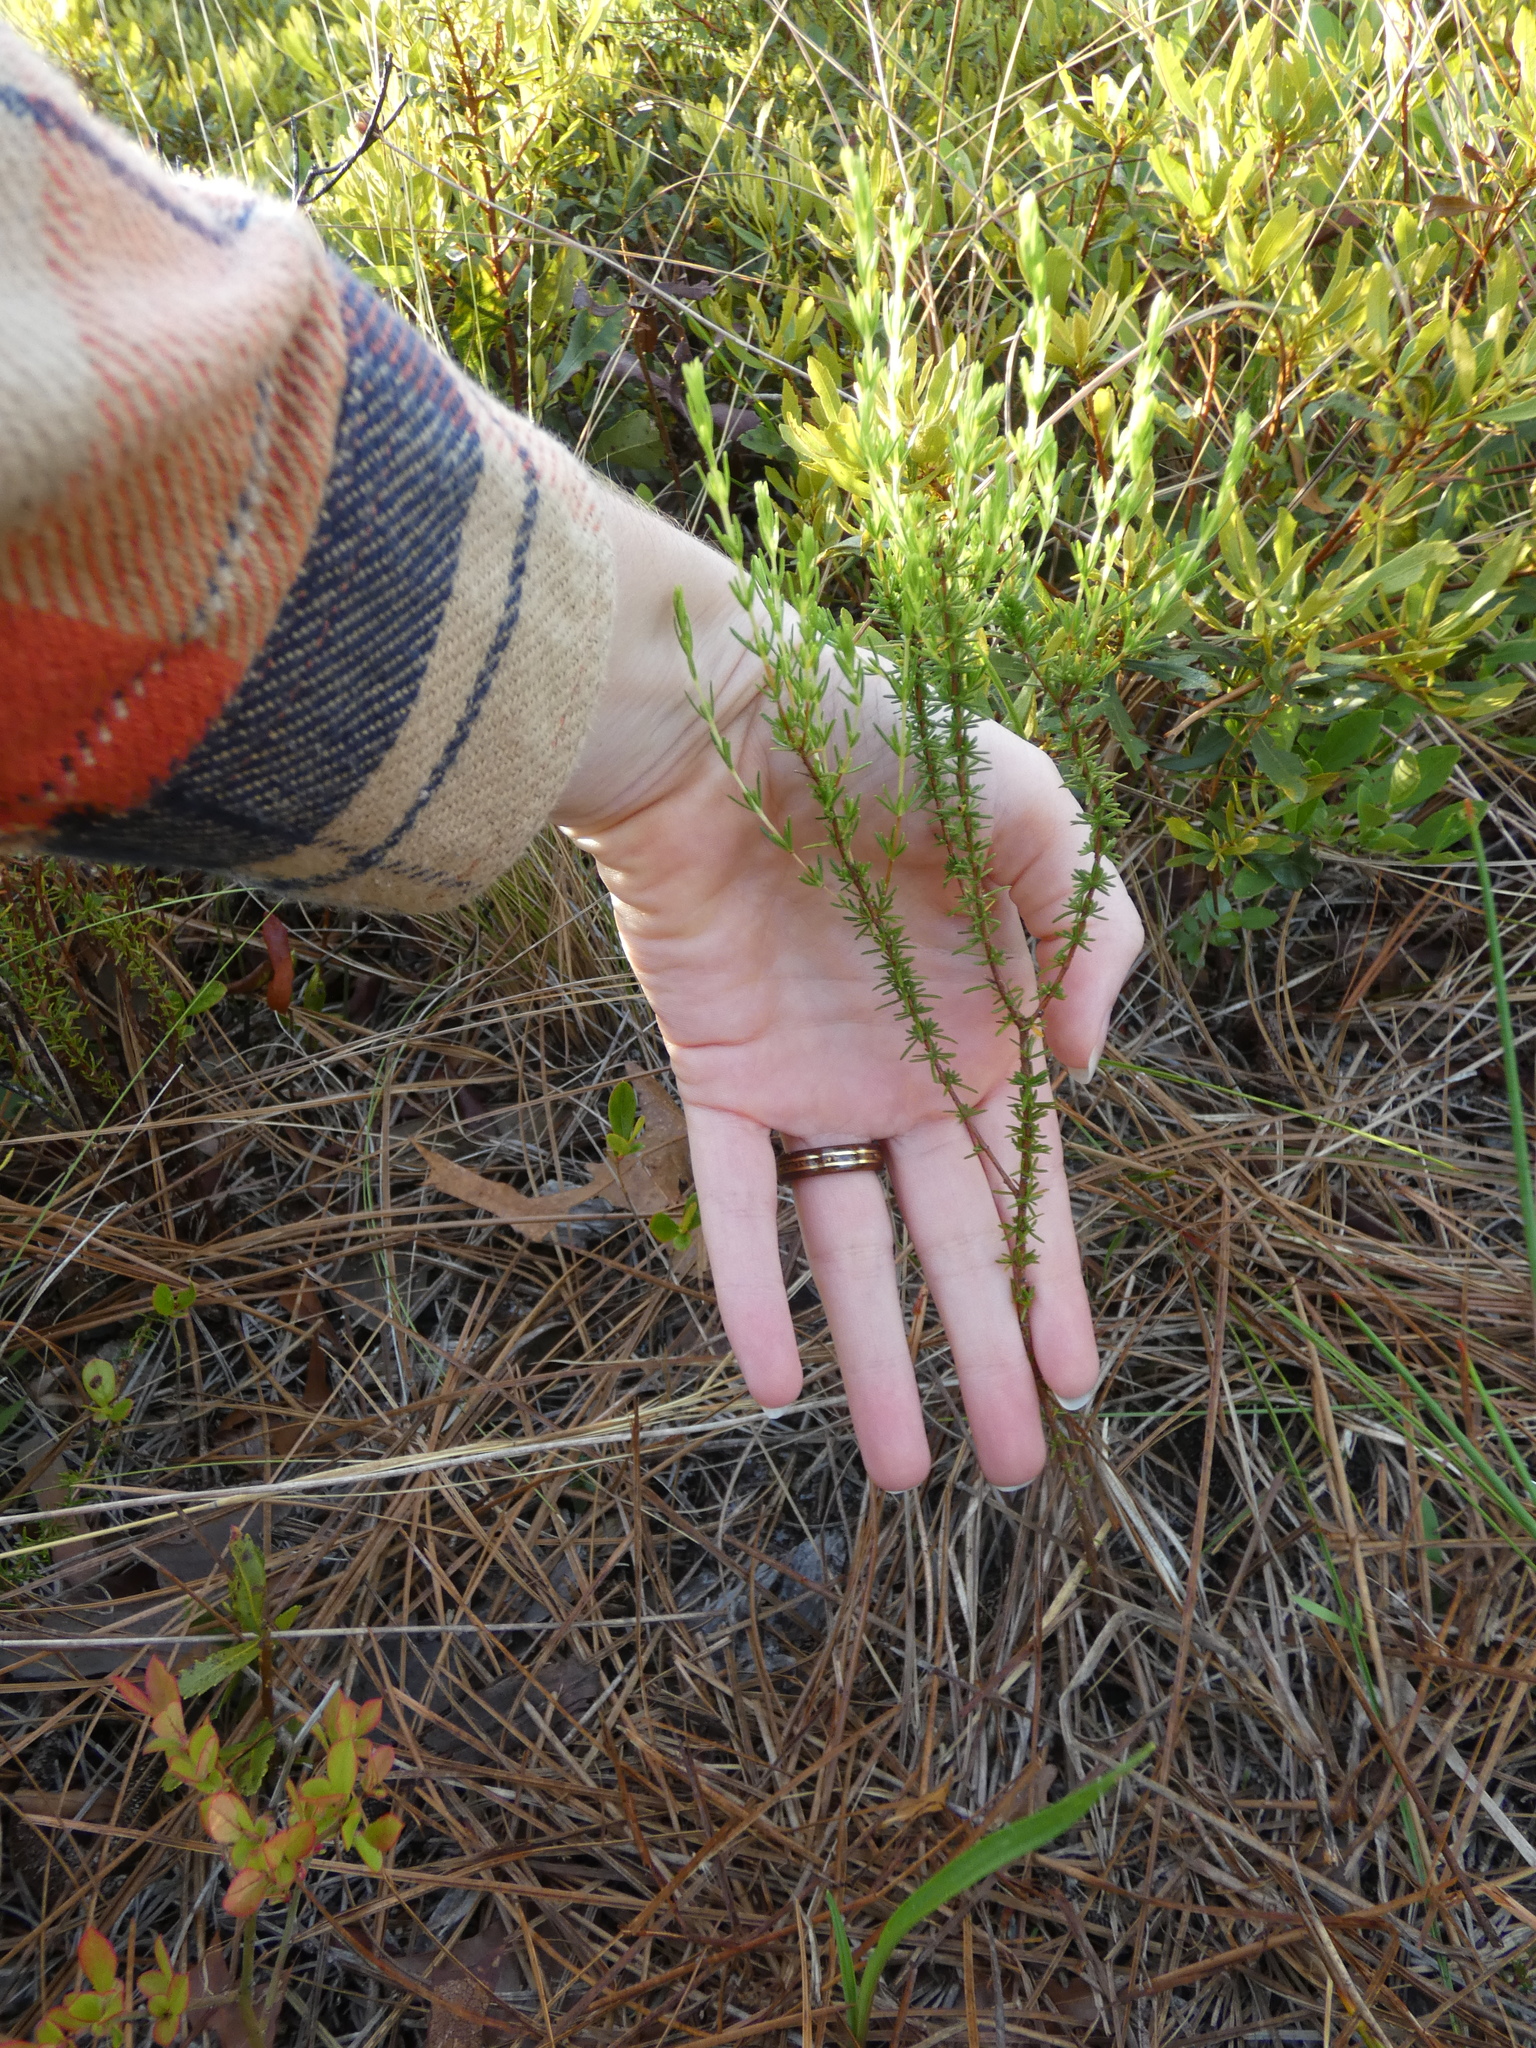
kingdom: Plantae
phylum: Tracheophyta
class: Magnoliopsida
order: Malpighiales
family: Hypericaceae
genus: Hypericum
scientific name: Hypericum tenuifolium
